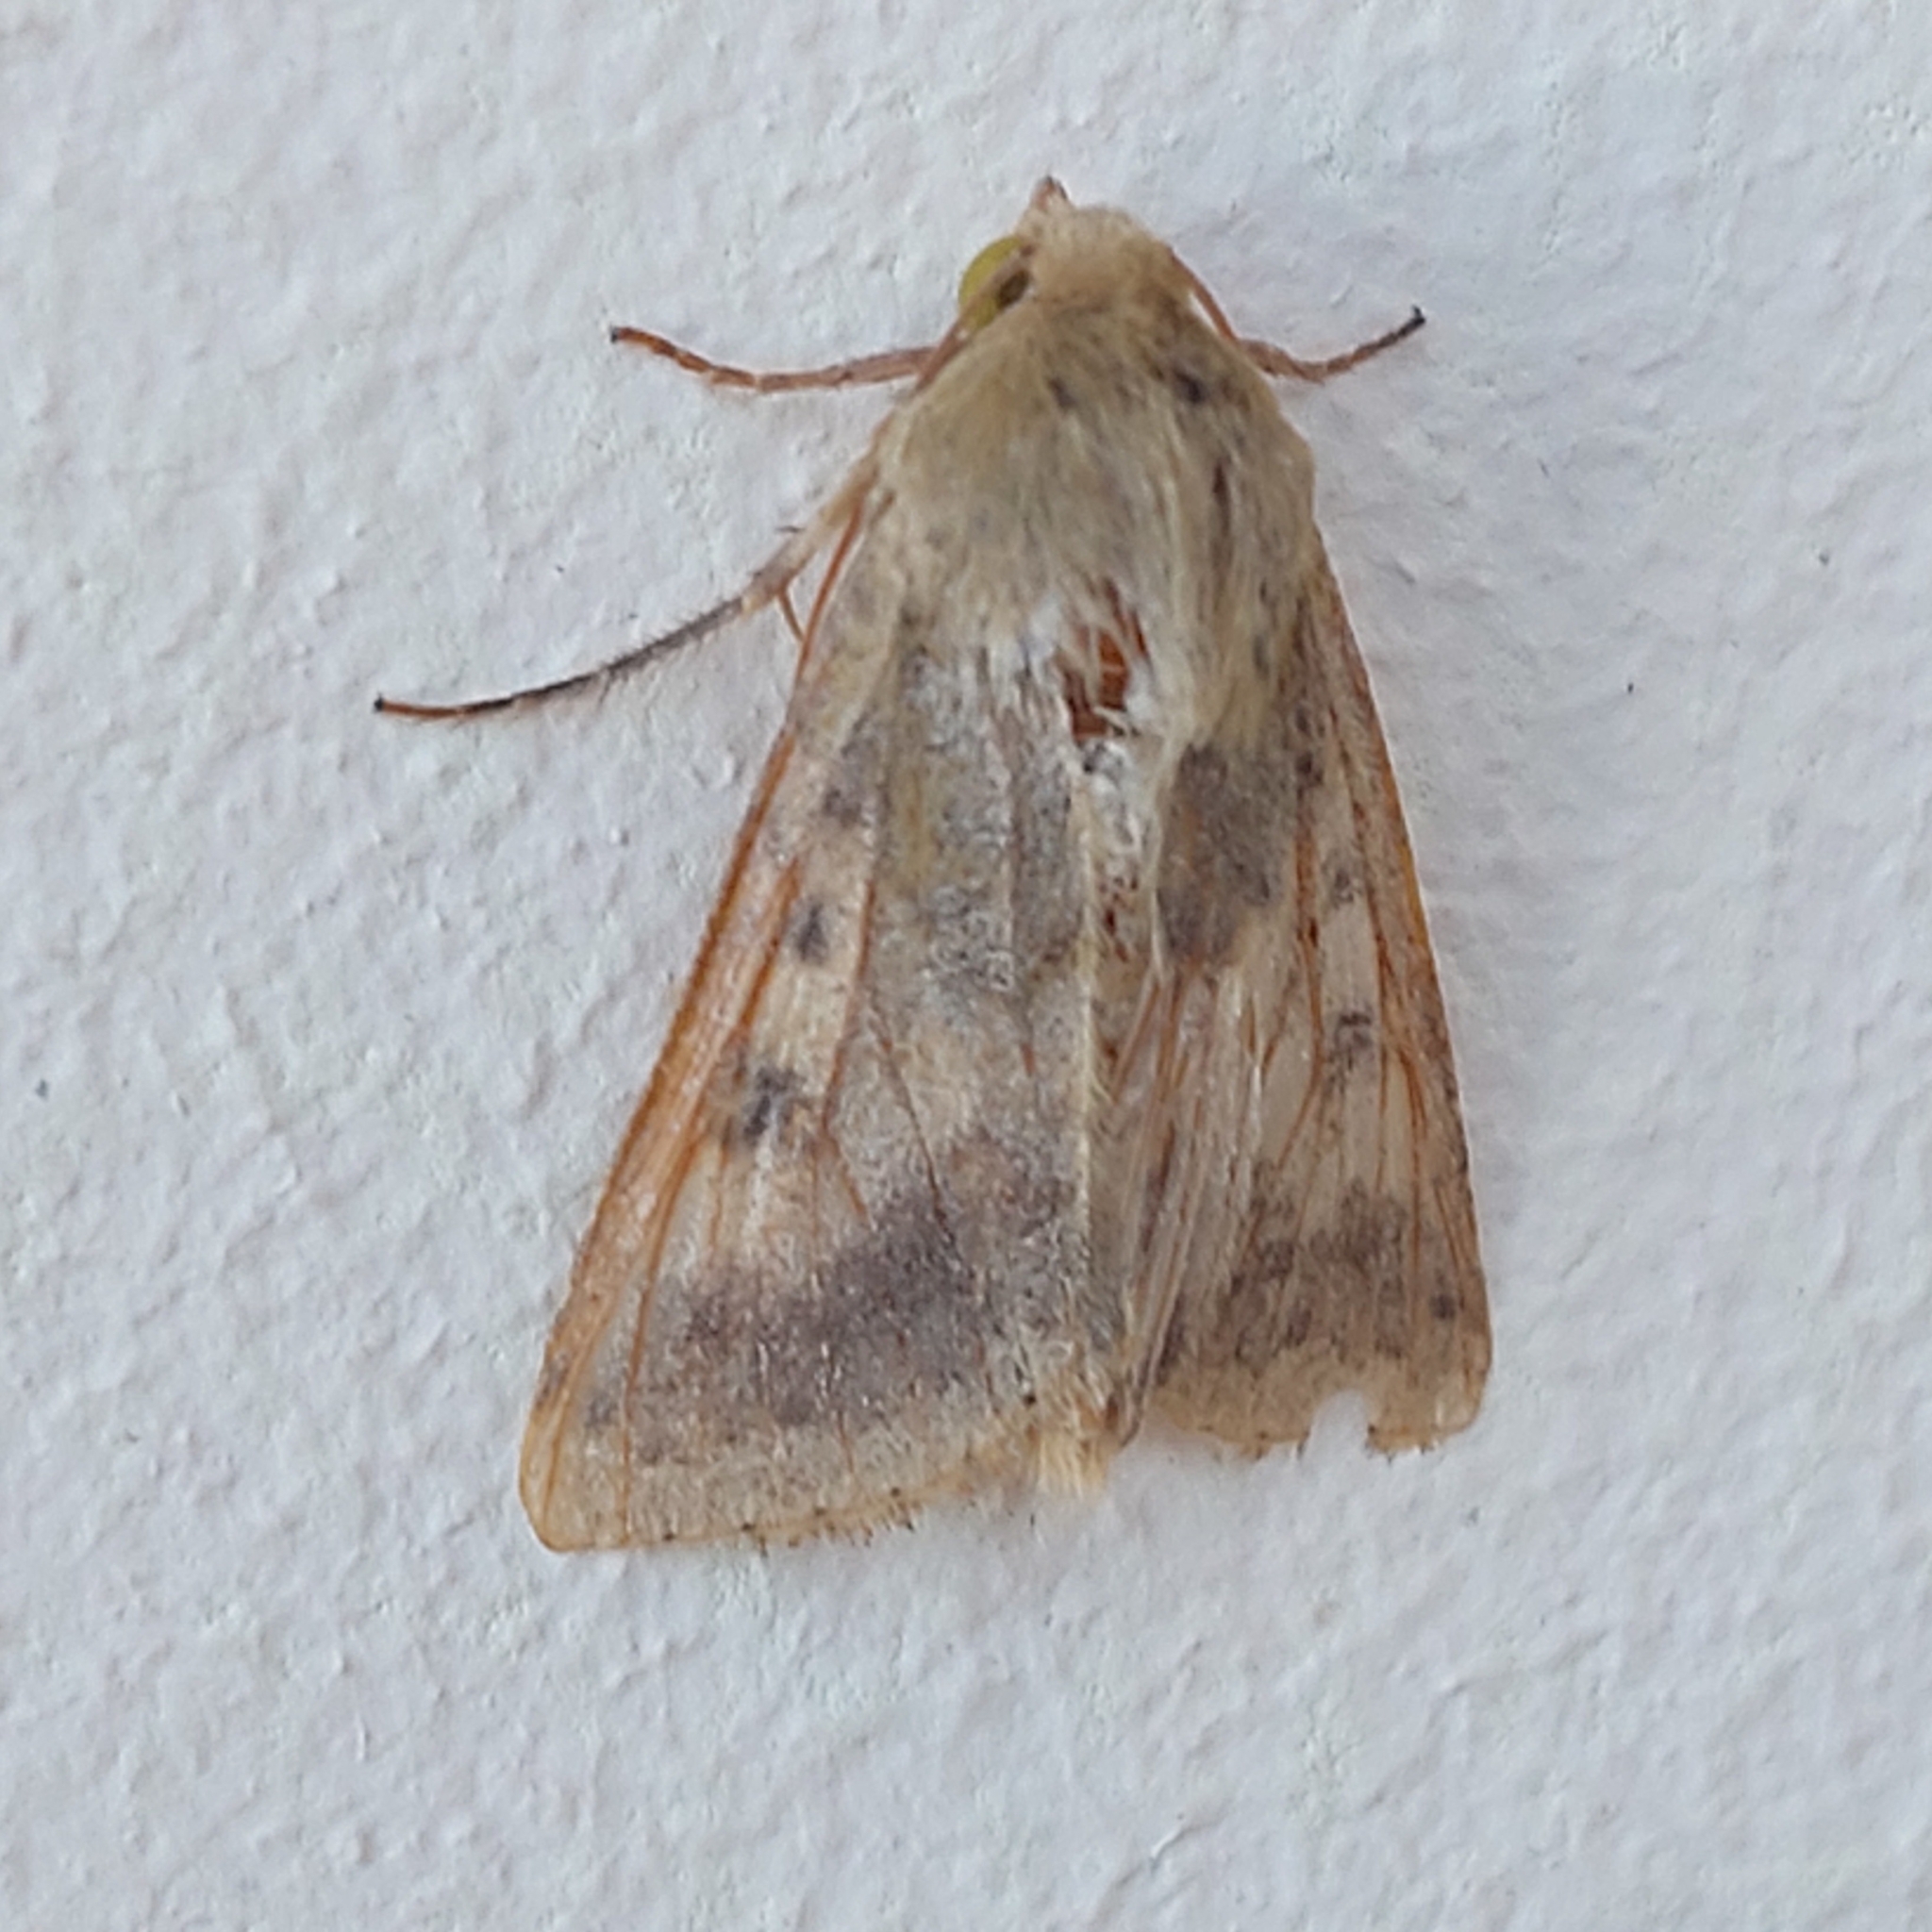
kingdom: Animalia
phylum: Arthropoda
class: Insecta
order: Lepidoptera
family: Noctuidae
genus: Helicoverpa
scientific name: Helicoverpa armigera
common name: Cotton bollworm
